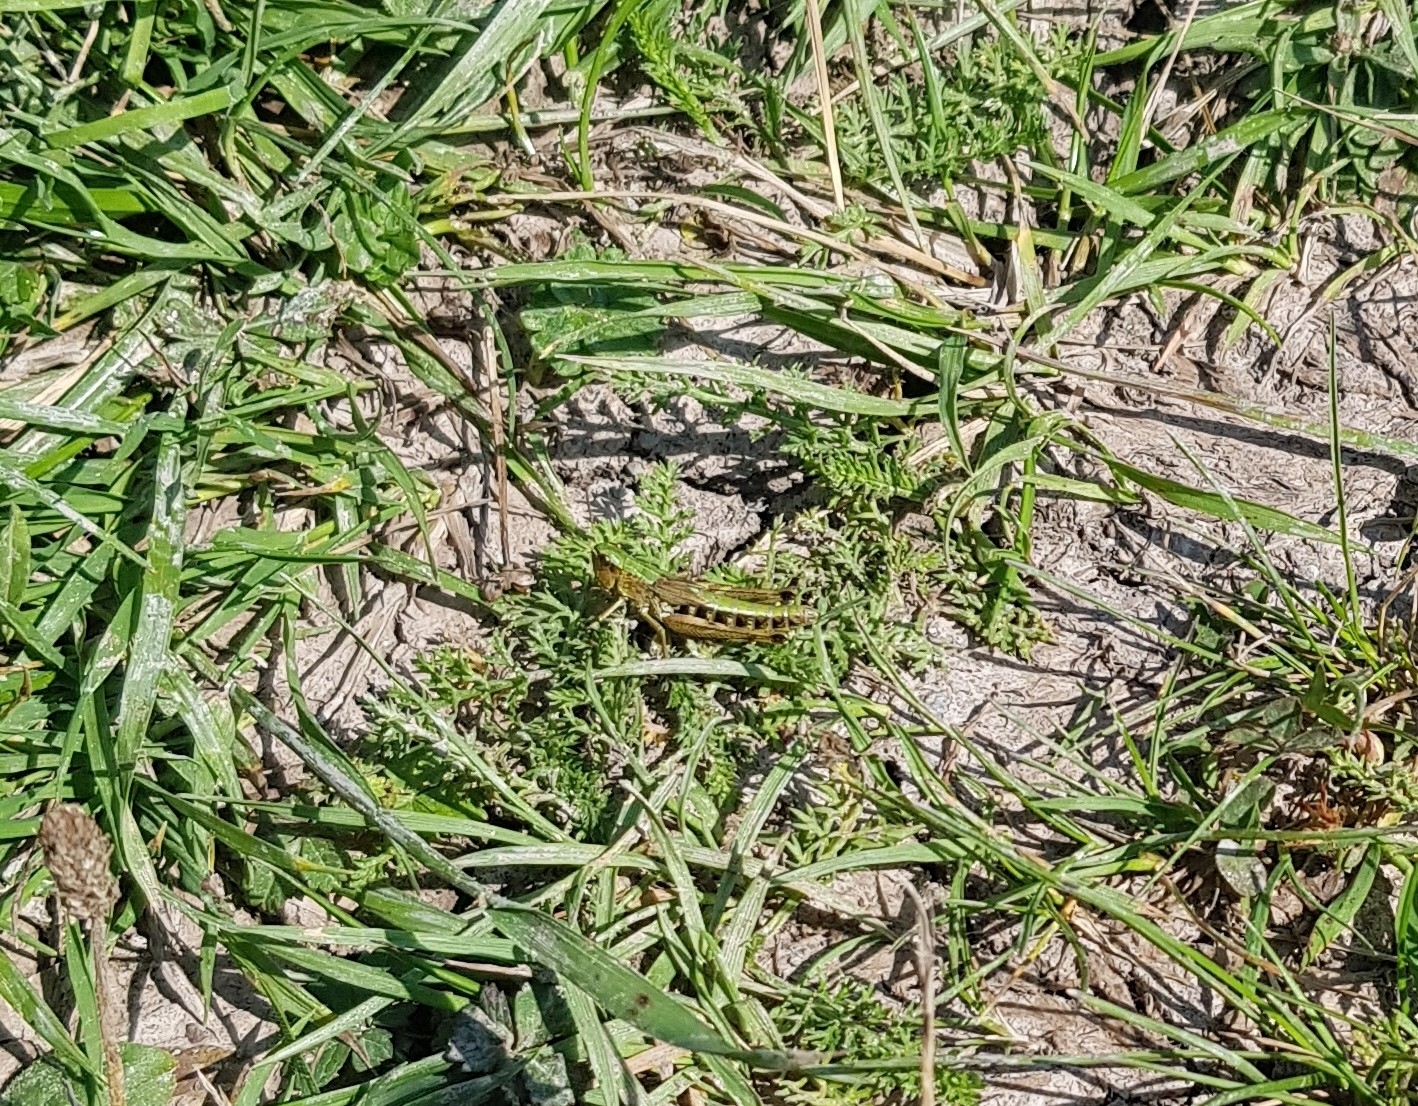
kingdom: Animalia
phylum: Arthropoda
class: Insecta
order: Orthoptera
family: Acrididae
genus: Pseudochorthippus
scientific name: Pseudochorthippus parallelus
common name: Meadow grasshopper
